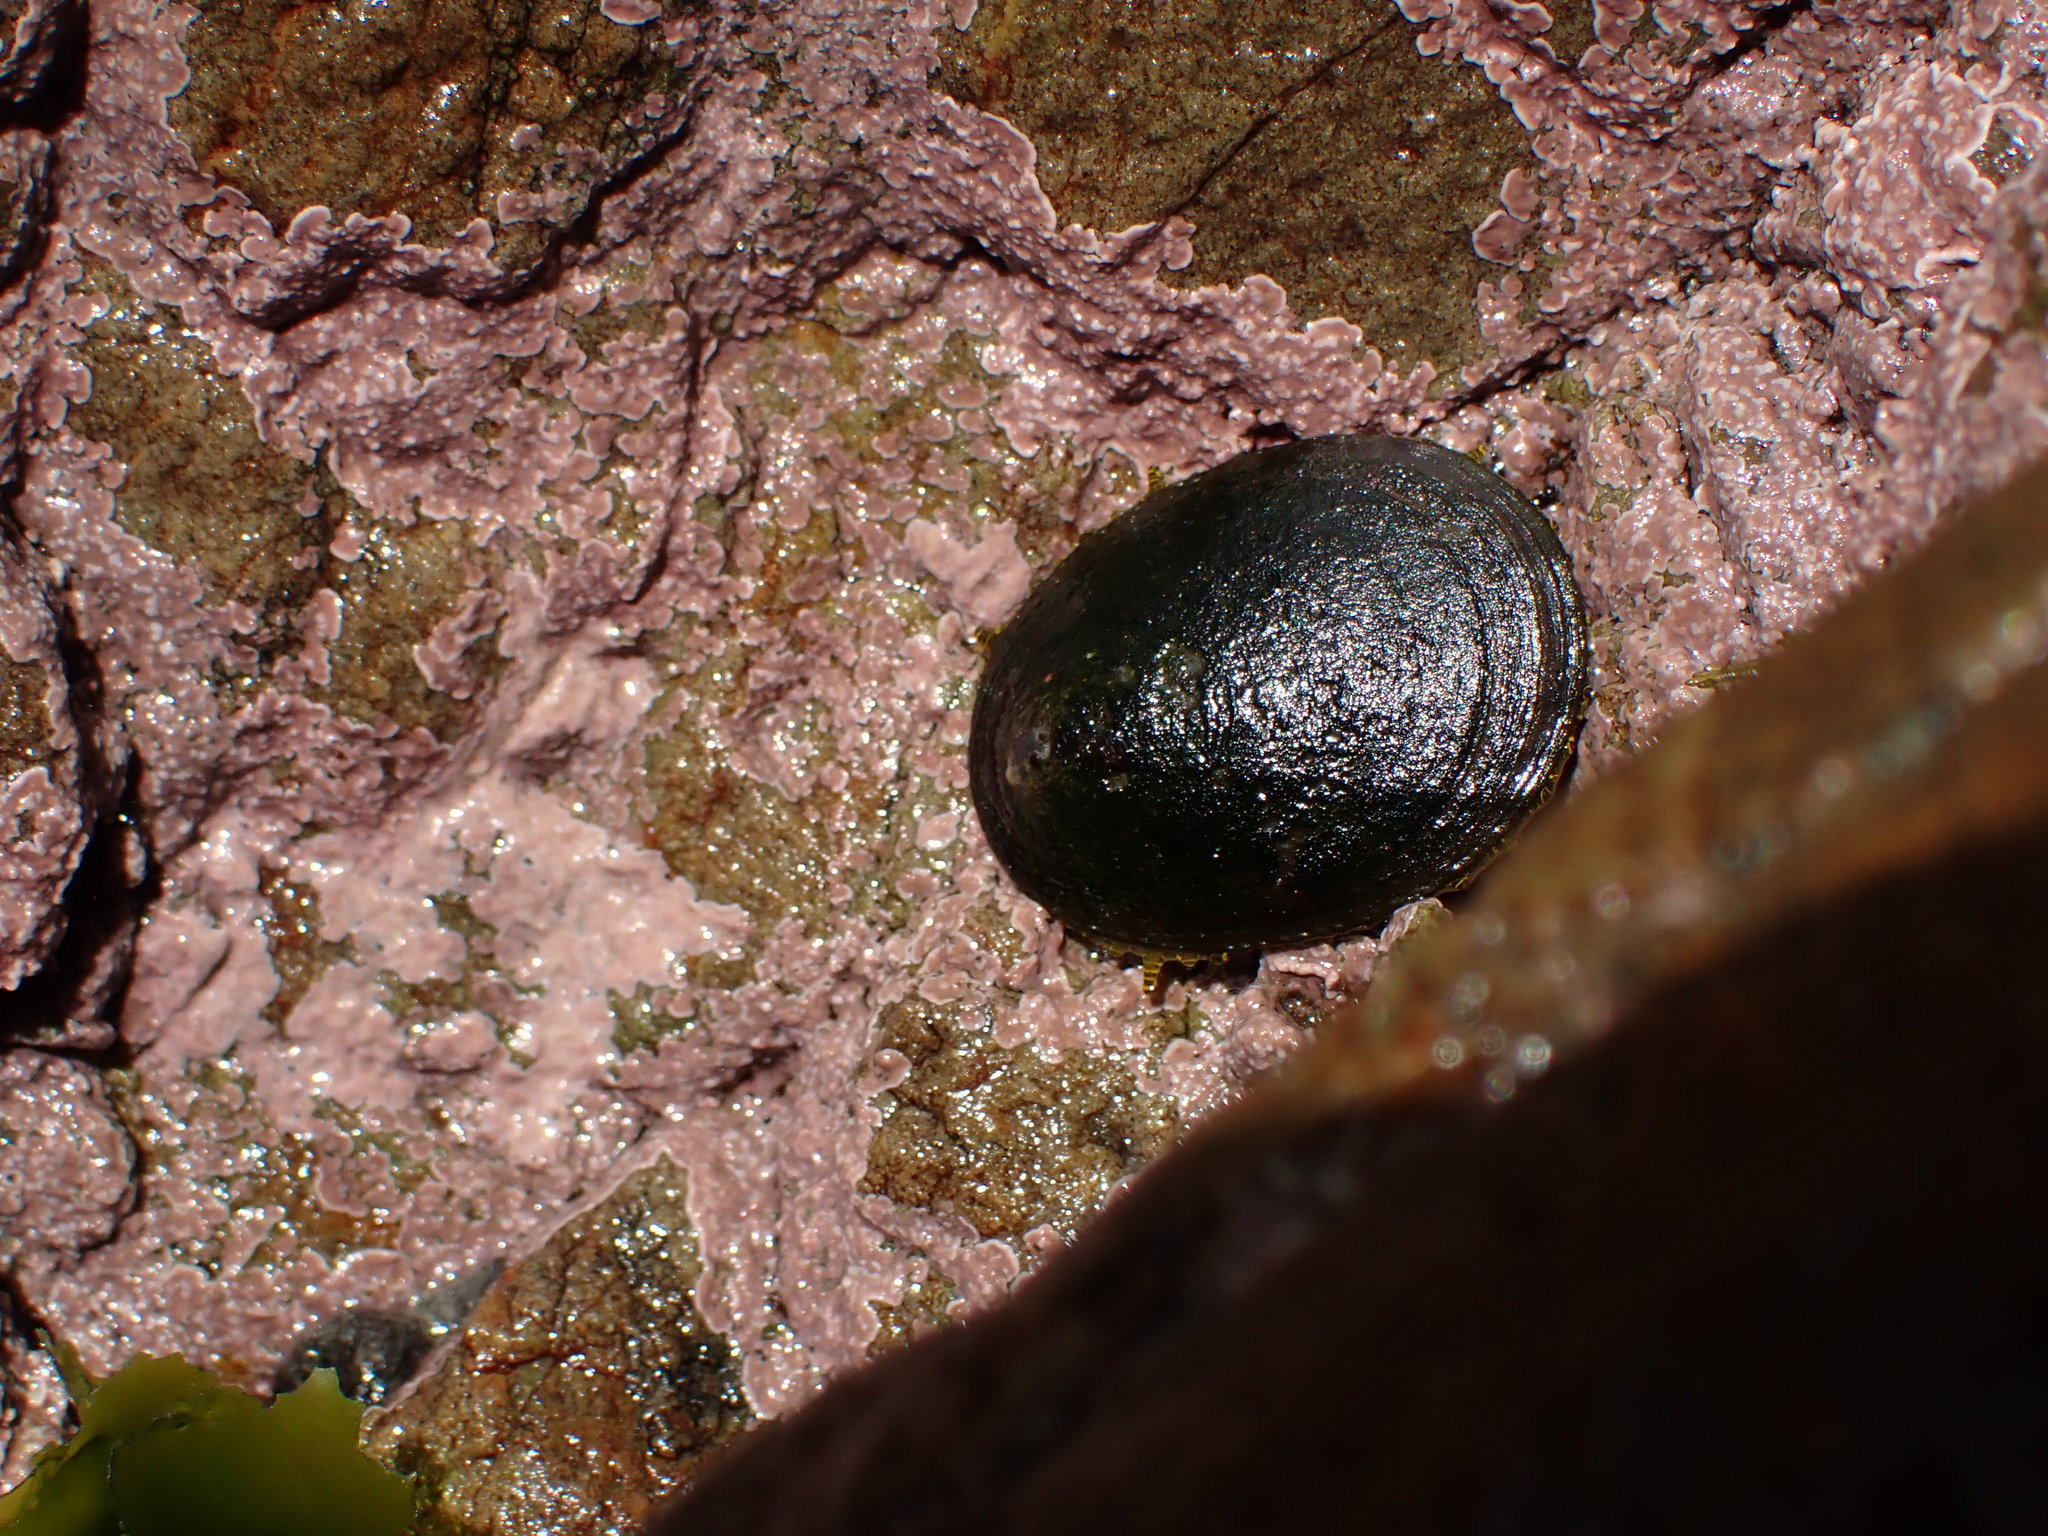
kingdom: Animalia
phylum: Mollusca
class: Gastropoda
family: Nacellidae
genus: Cellana
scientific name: Cellana radians
